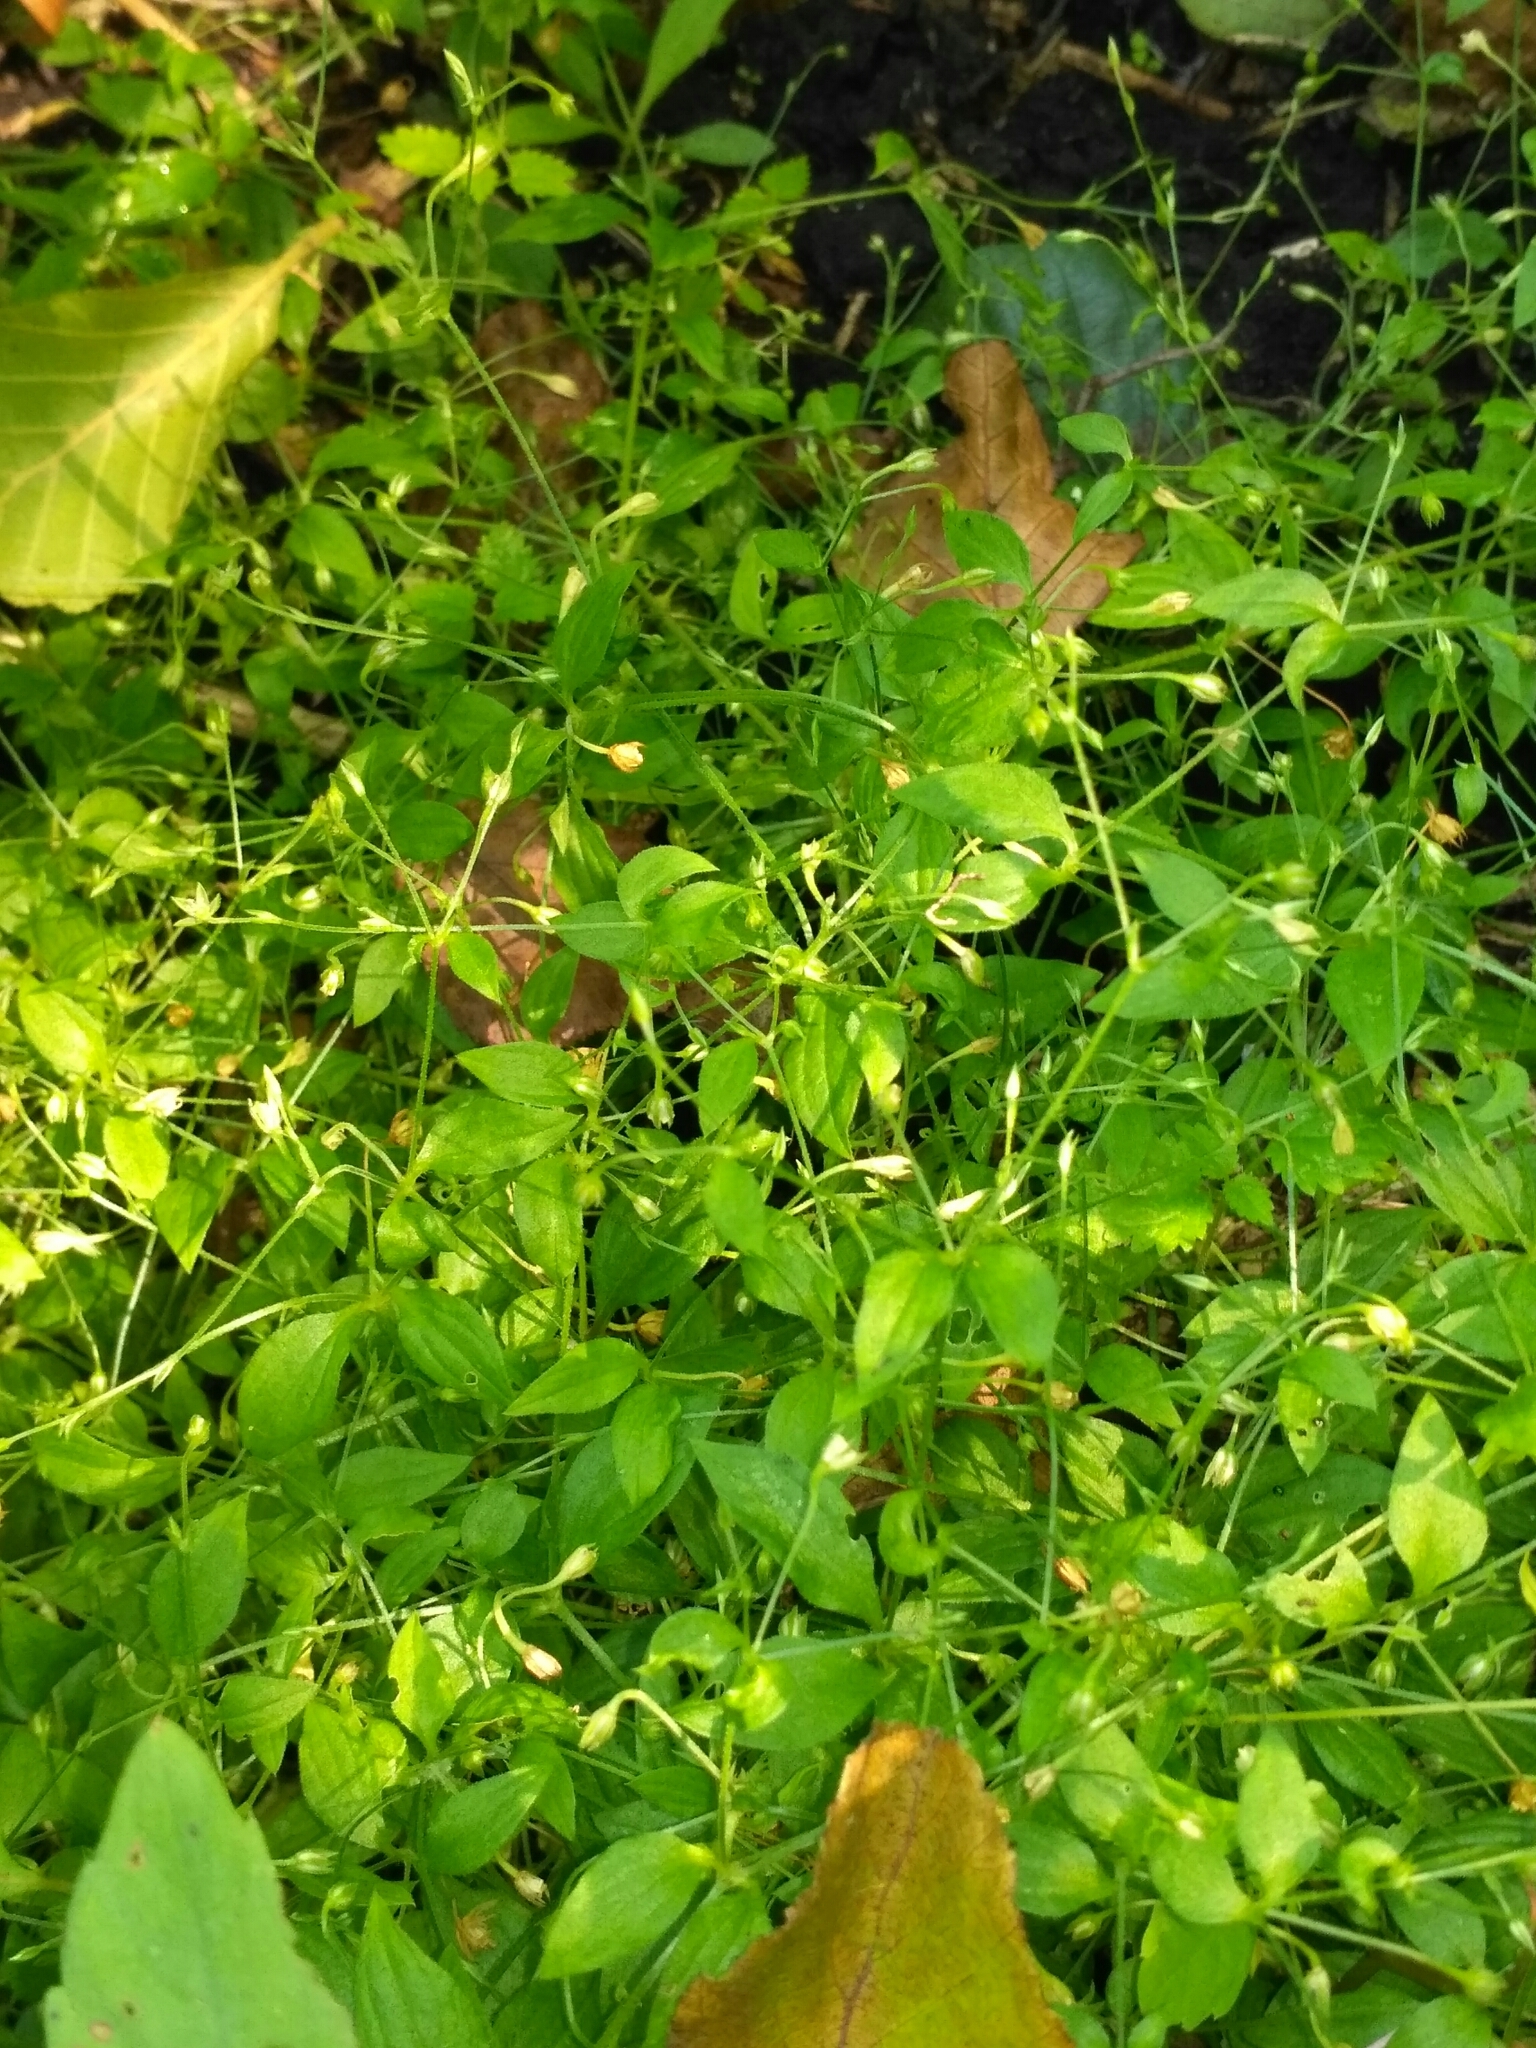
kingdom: Plantae
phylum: Tracheophyta
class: Magnoliopsida
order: Caryophyllales
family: Caryophyllaceae
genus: Moehringia
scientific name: Moehringia trinervia
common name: Three-nerved sandwort
